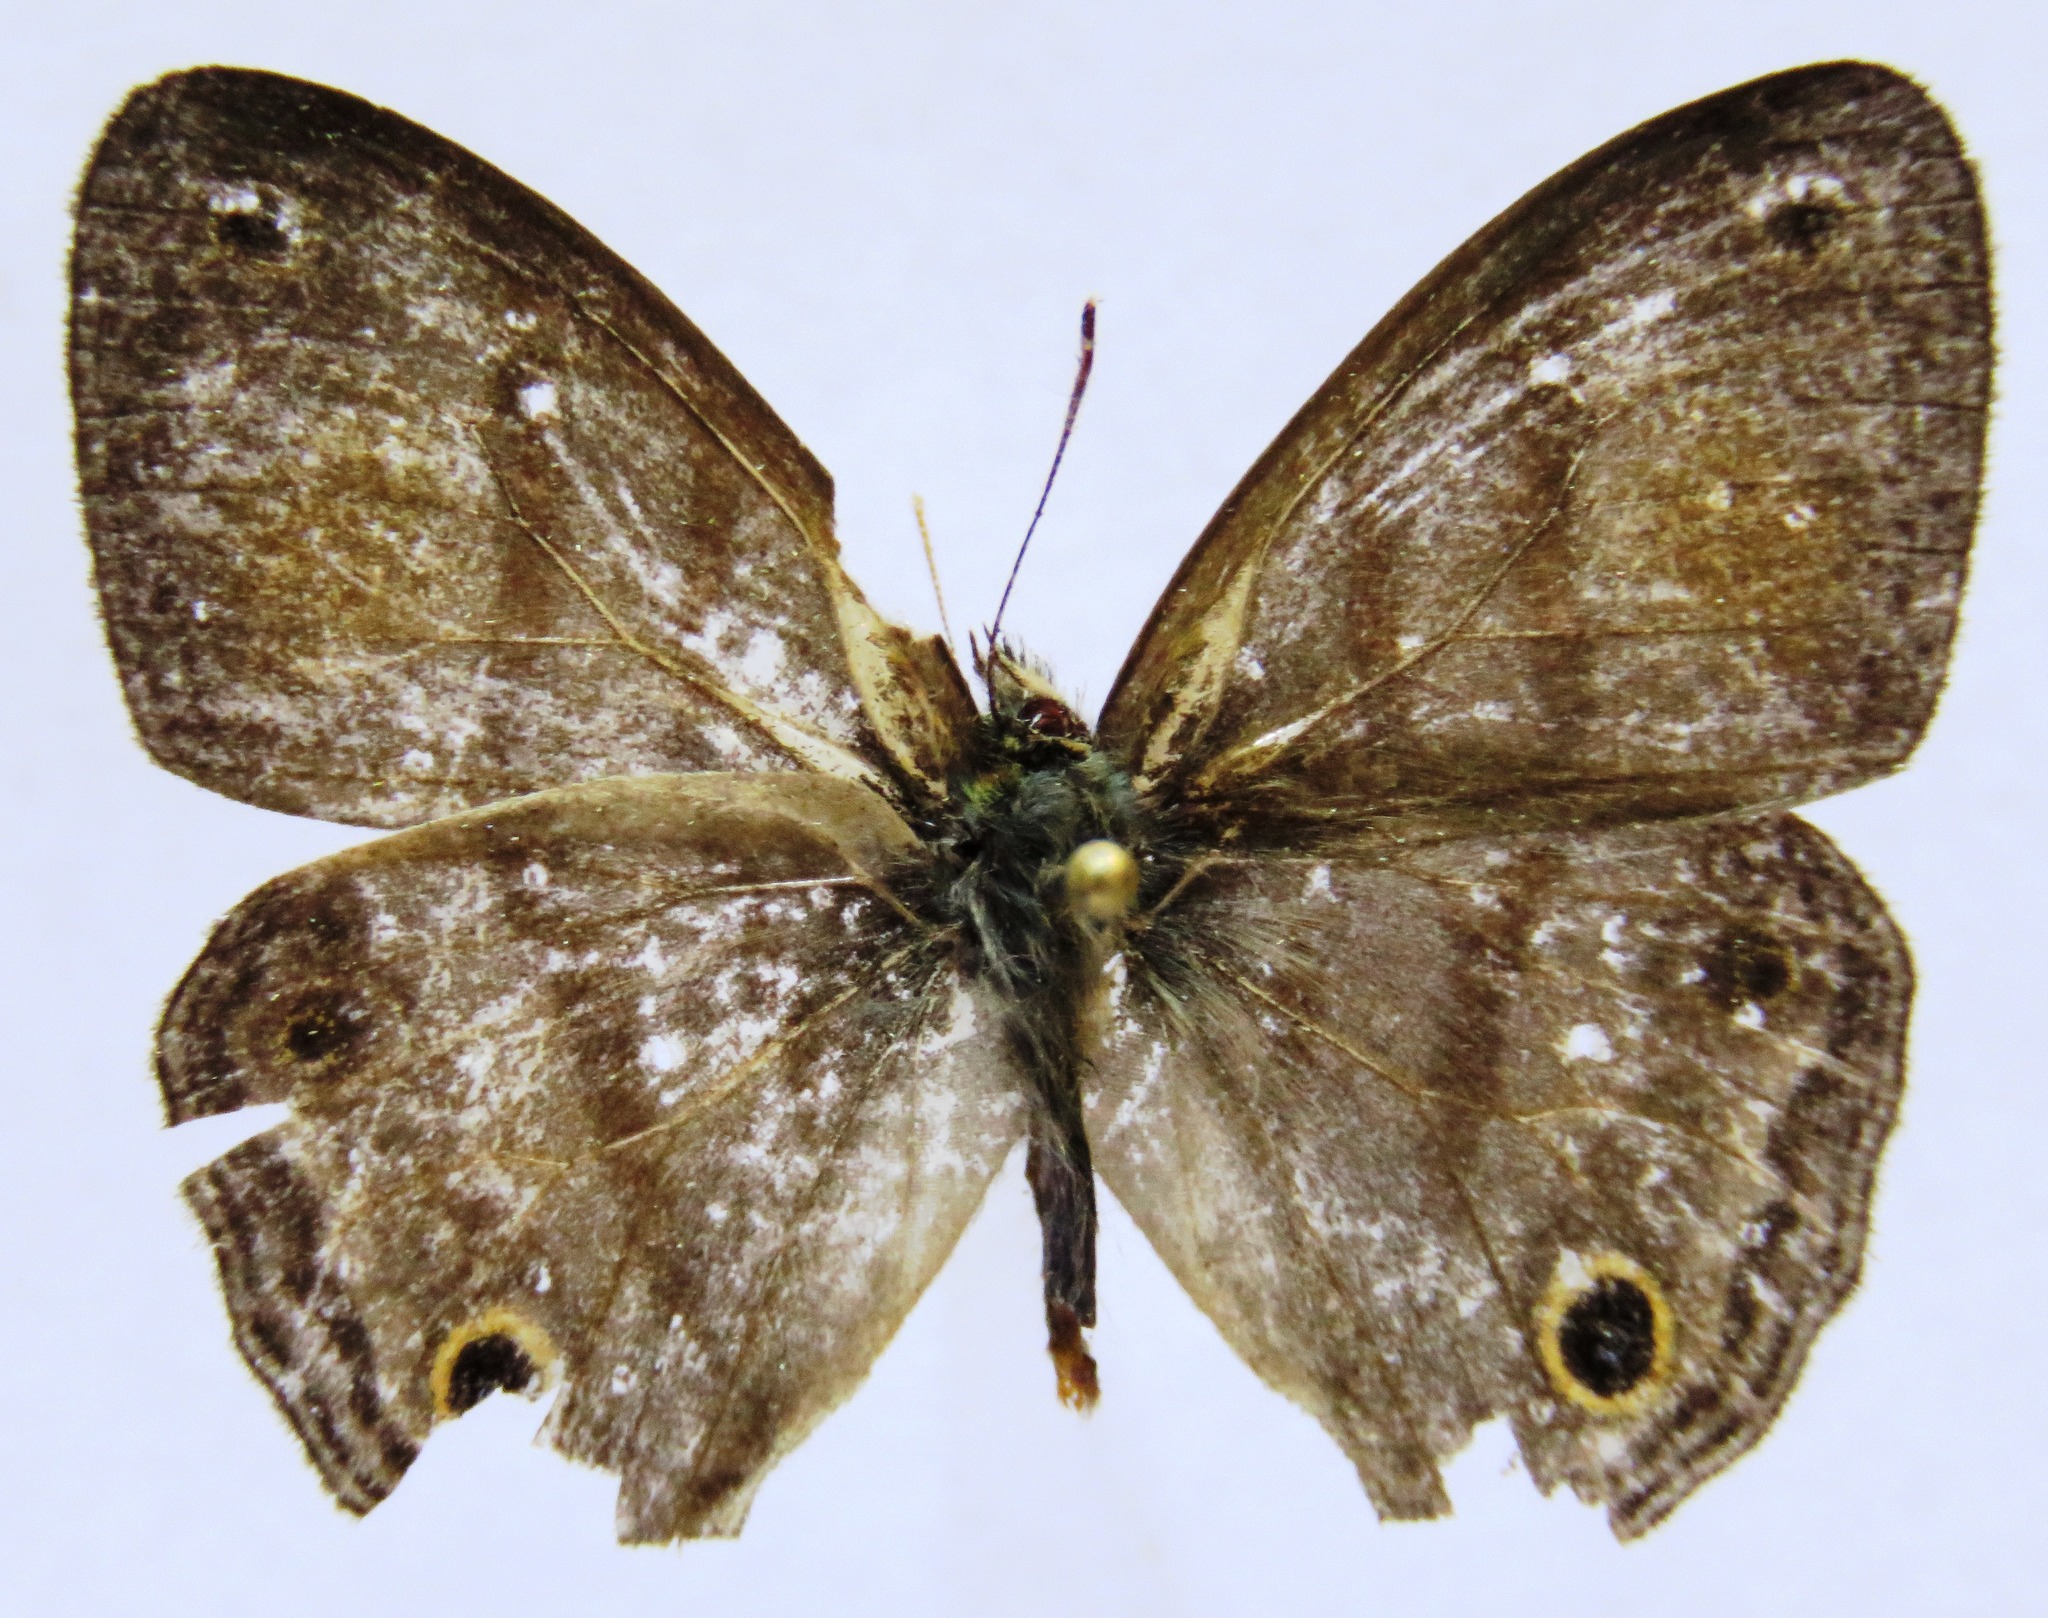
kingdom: Animalia
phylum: Arthropoda
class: Insecta
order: Lepidoptera
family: Nymphalidae
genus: Paryphthimoides
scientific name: Paryphthimoides
